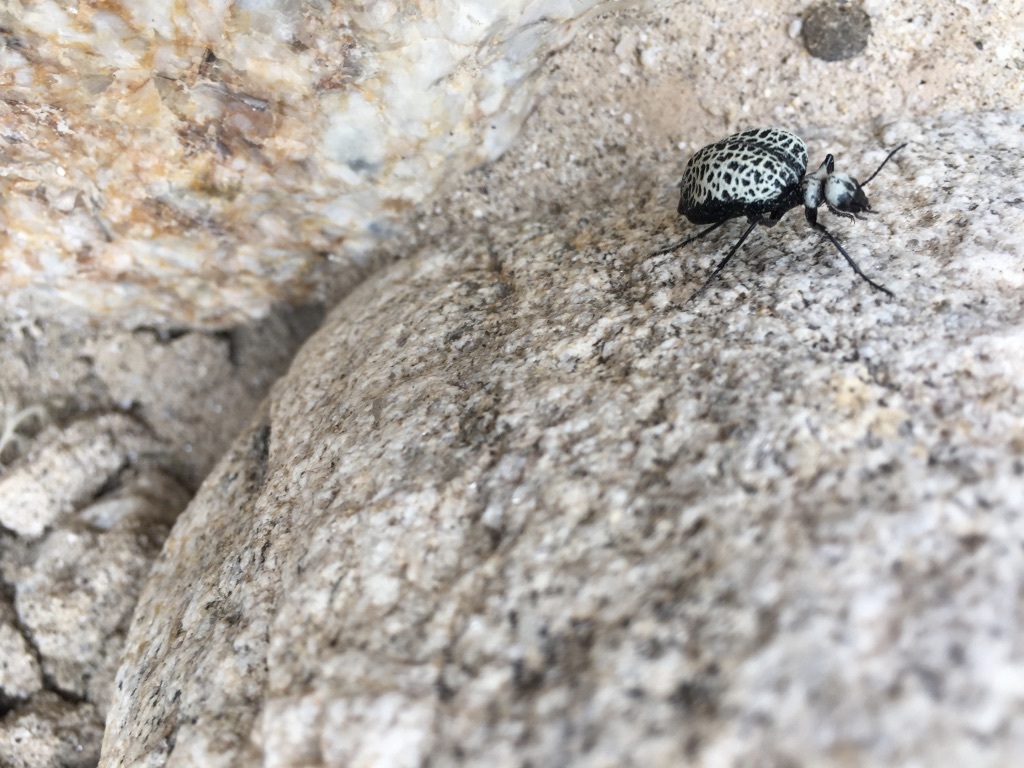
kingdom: Animalia
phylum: Arthropoda
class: Insecta
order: Coleoptera
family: Meloidae
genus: Cysteodemus
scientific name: Cysteodemus armatus
